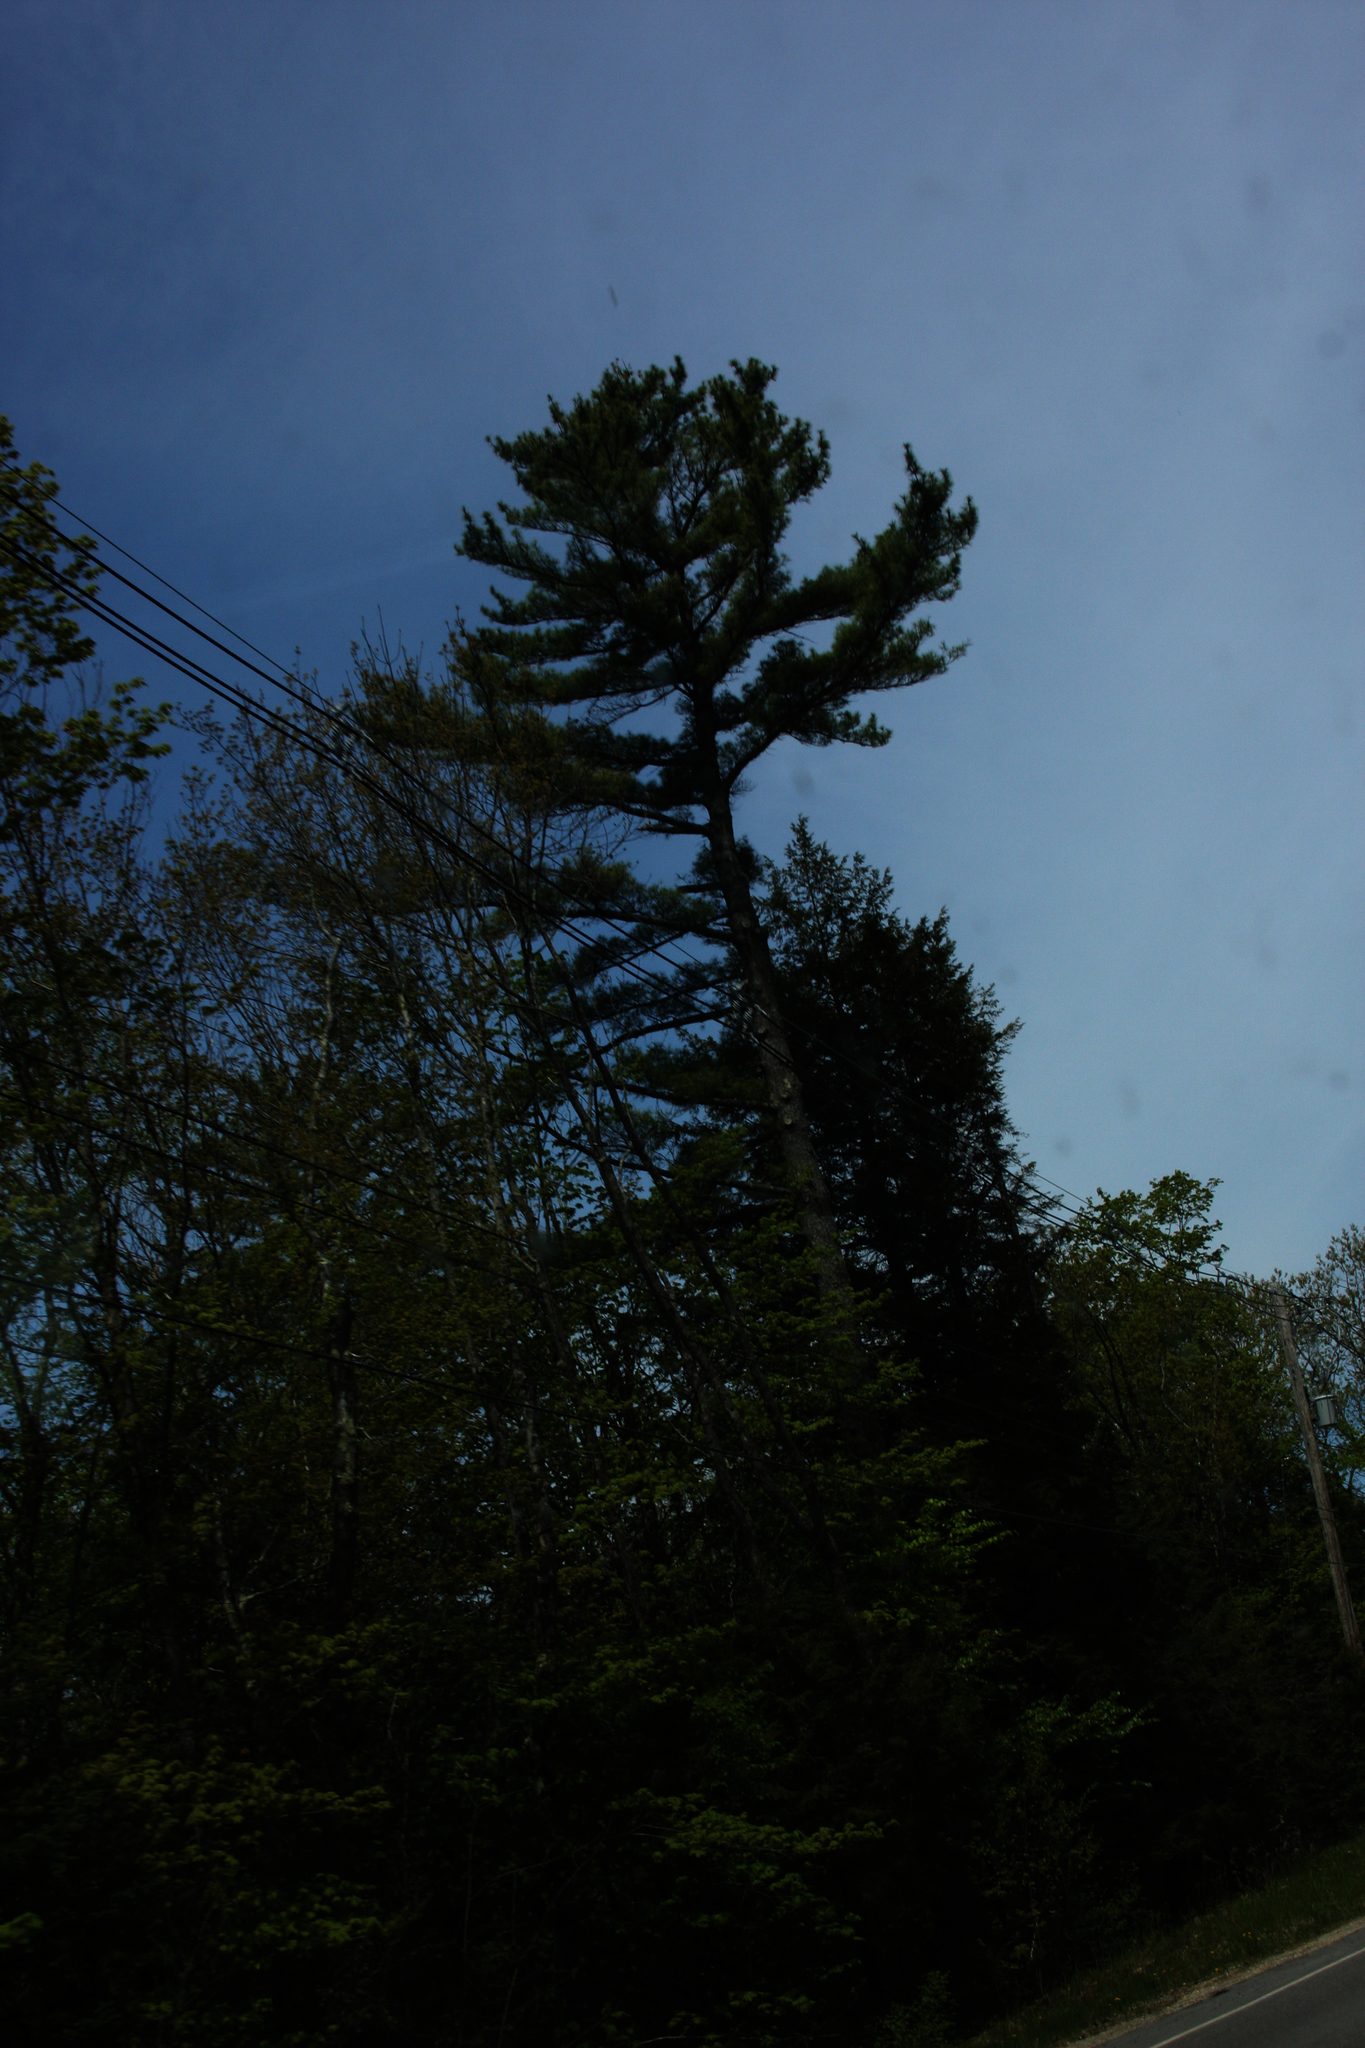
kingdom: Plantae
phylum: Tracheophyta
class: Pinopsida
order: Pinales
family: Pinaceae
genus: Pinus
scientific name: Pinus strobus
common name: Weymouth pine
